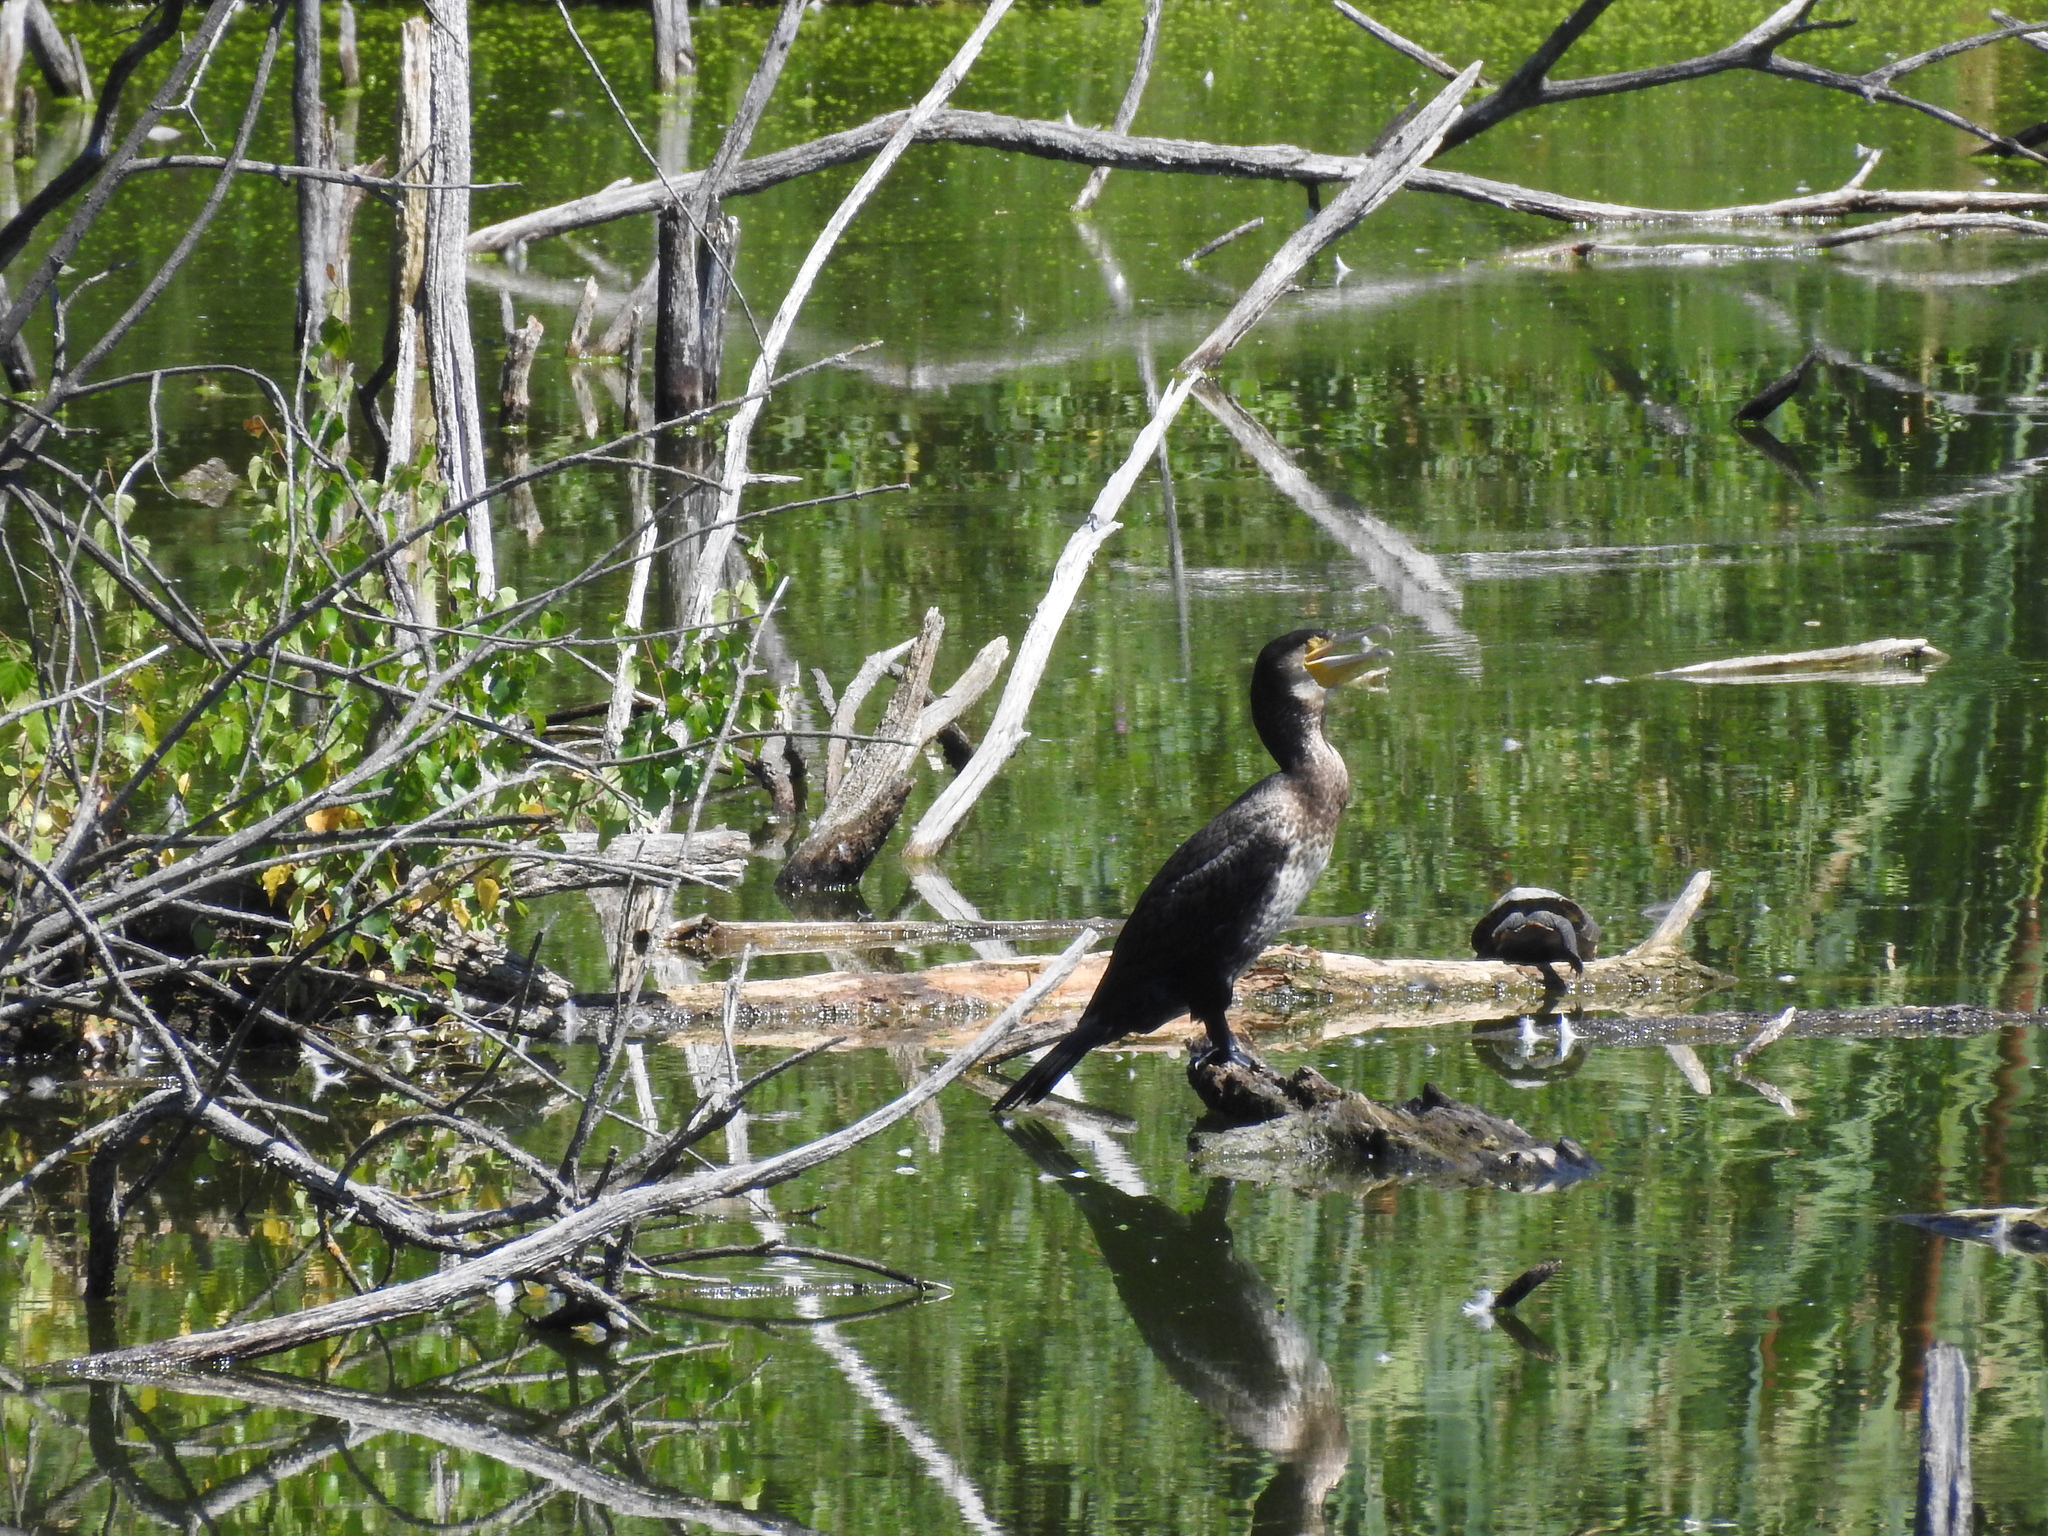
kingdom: Animalia
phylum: Chordata
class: Aves
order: Suliformes
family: Phalacrocoracidae
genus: Phalacrocorax
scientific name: Phalacrocorax carbo
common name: Great cormorant
